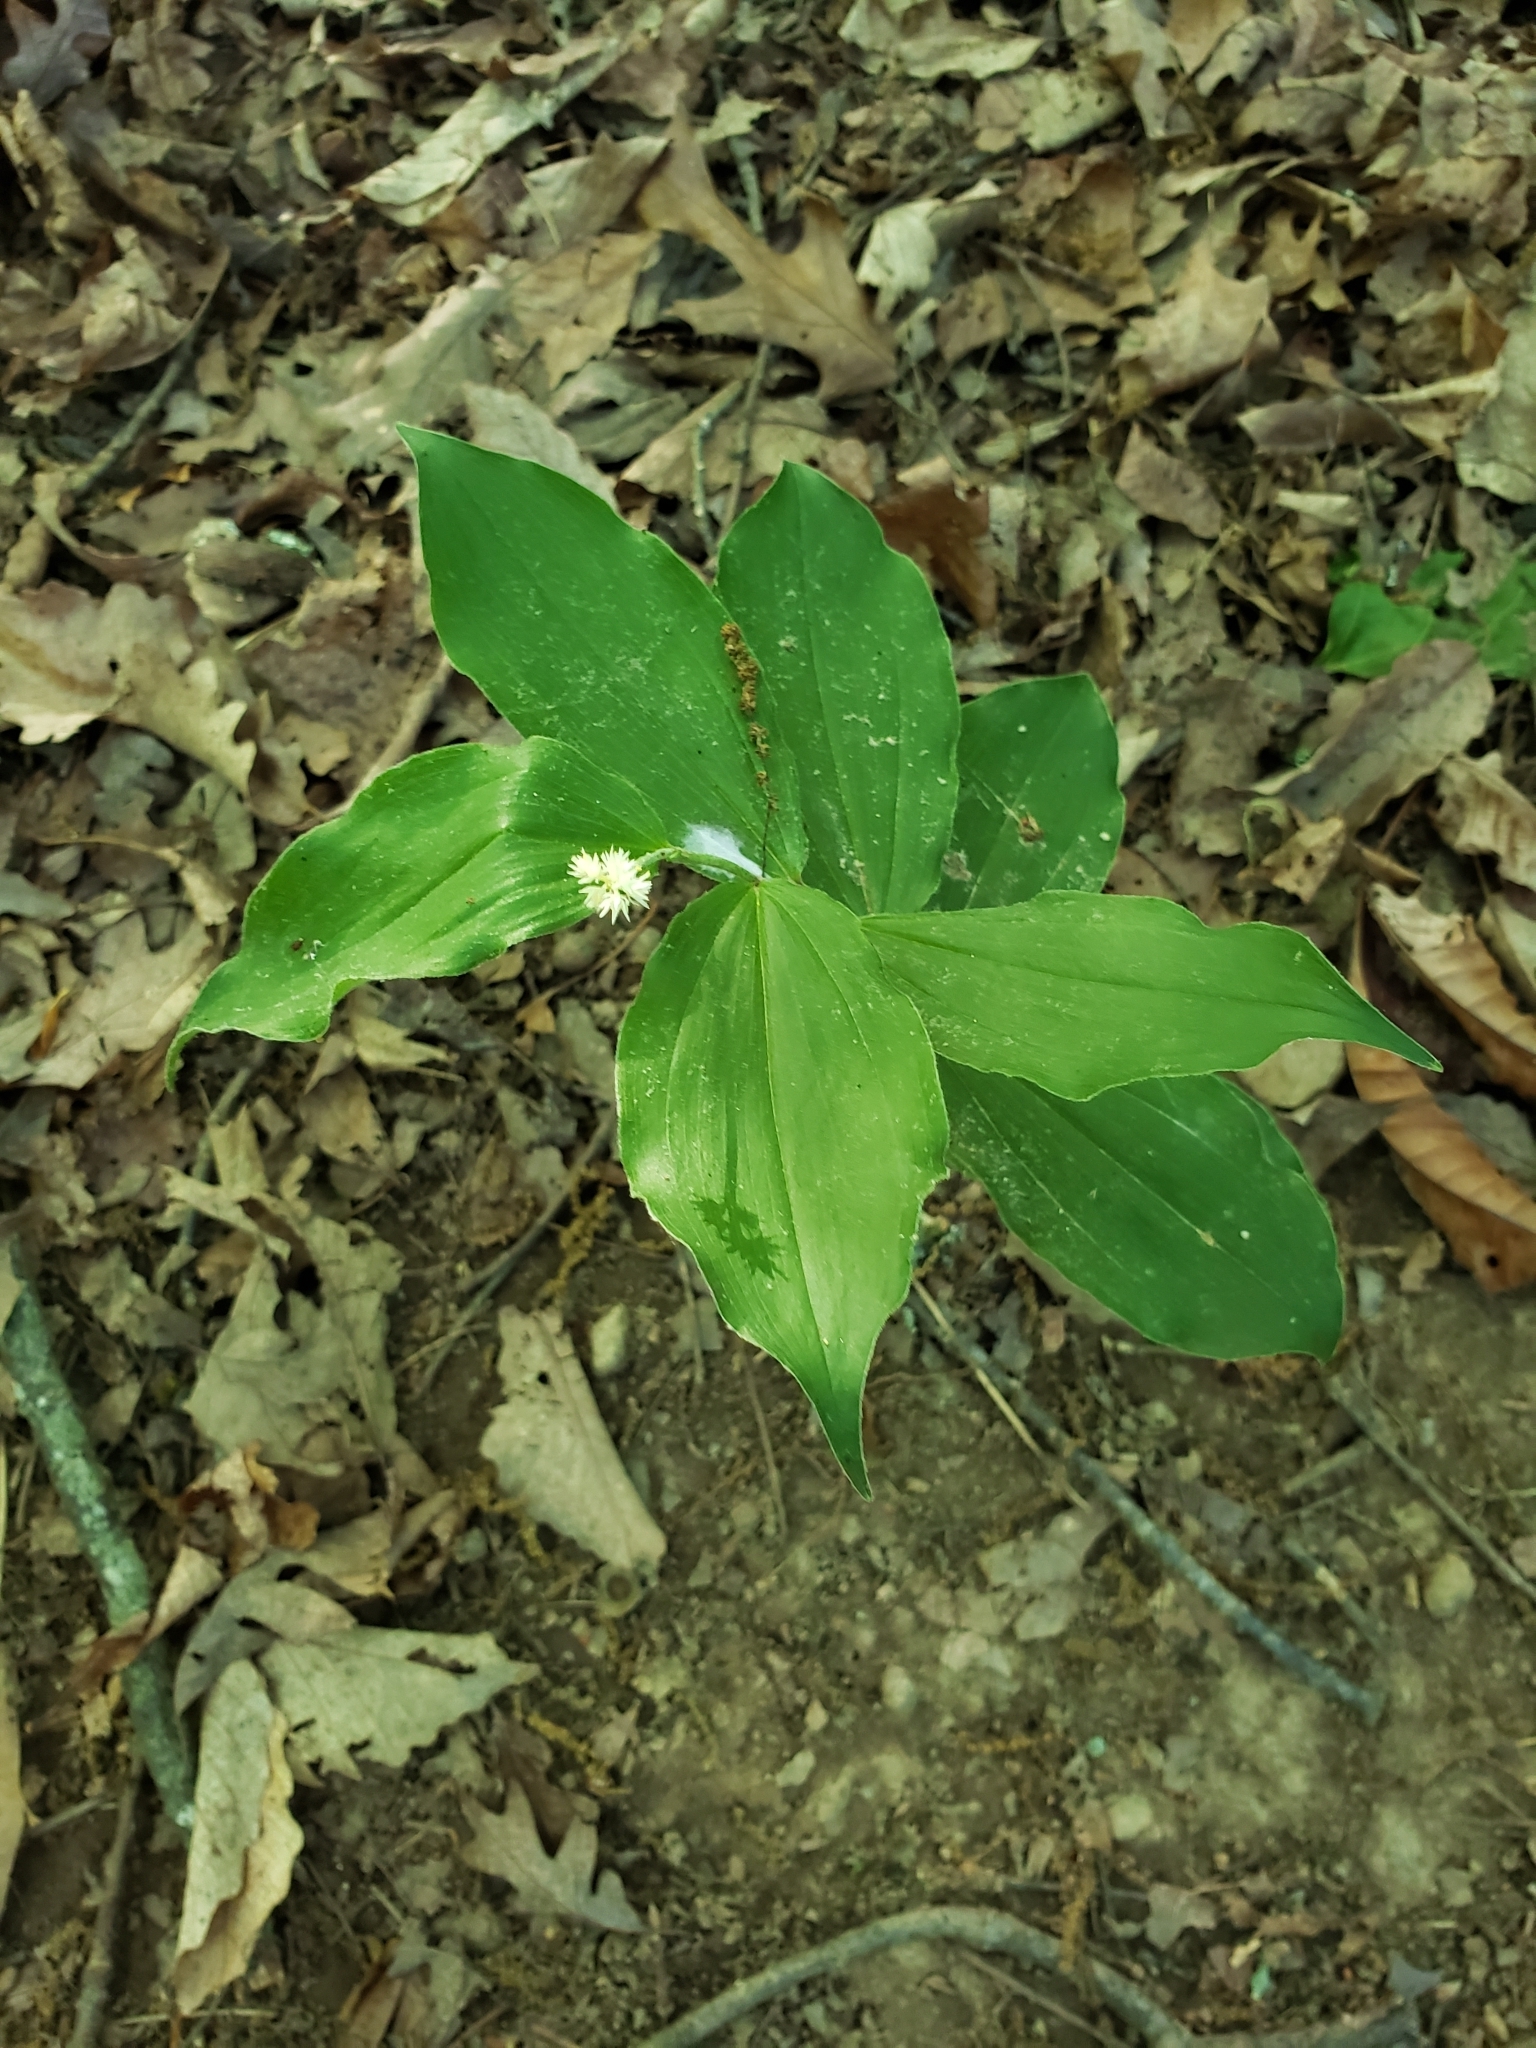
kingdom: Plantae
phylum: Tracheophyta
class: Liliopsida
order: Asparagales
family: Asparagaceae
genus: Maianthemum
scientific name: Maianthemum racemosum
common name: False spikenard
